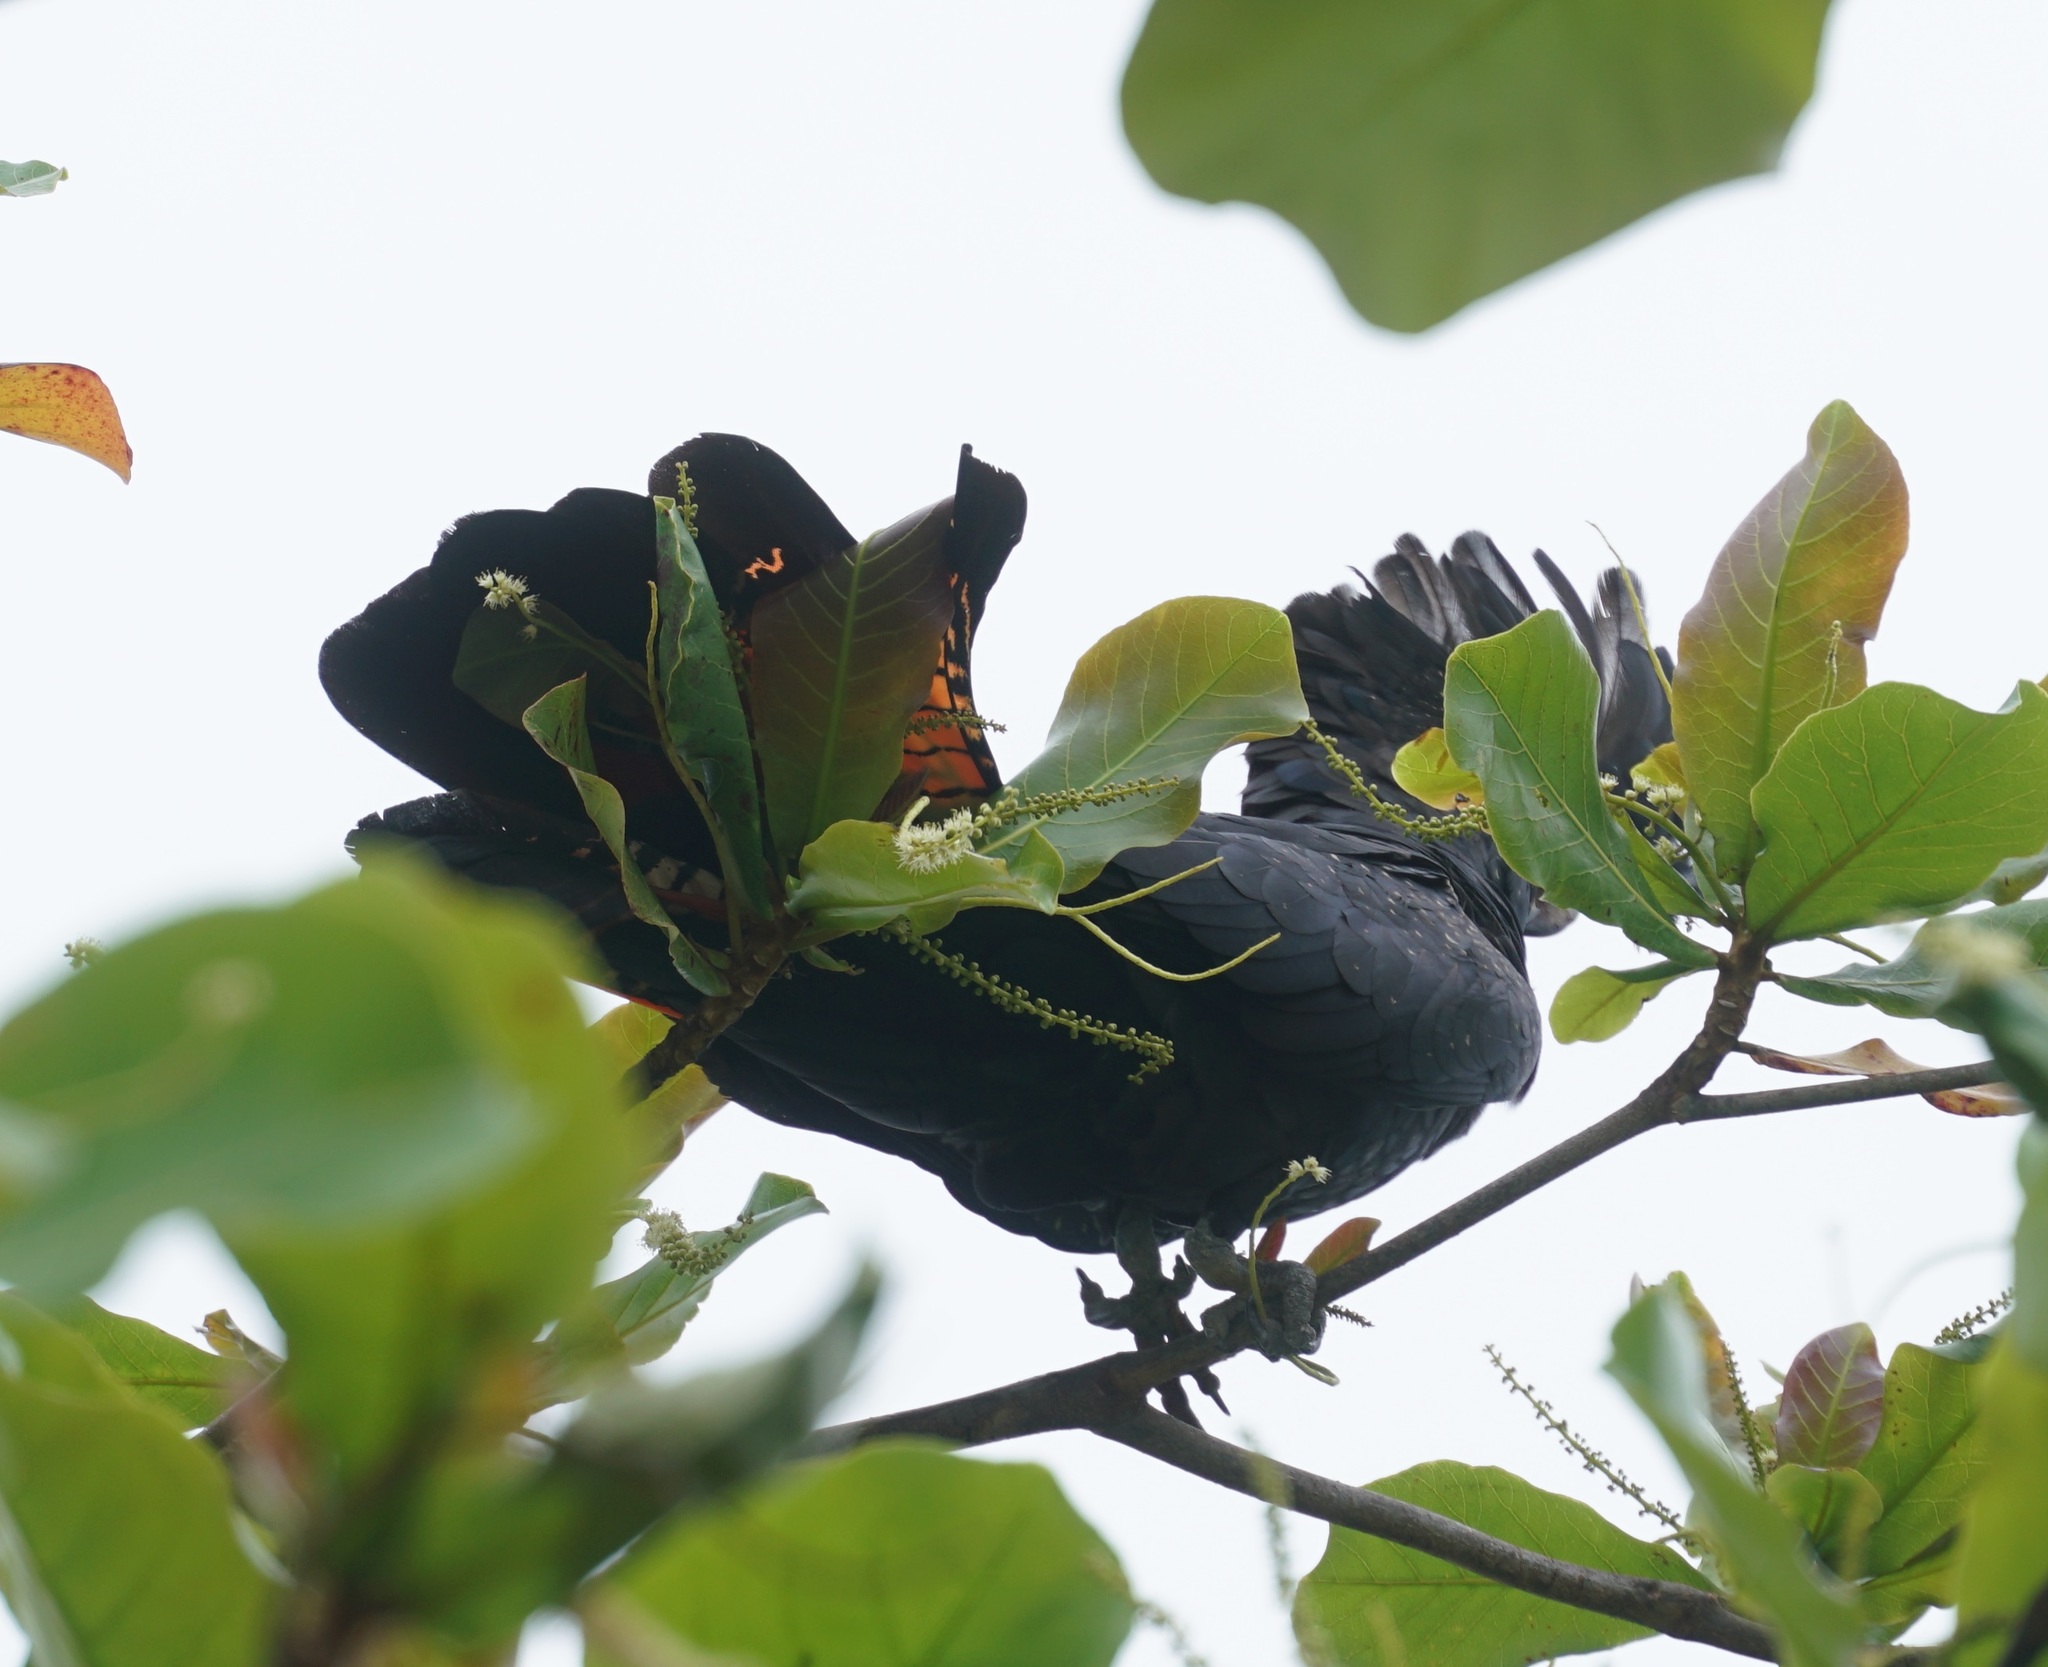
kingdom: Animalia
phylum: Chordata
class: Aves
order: Psittaciformes
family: Psittacidae
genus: Calyptorhynchus
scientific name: Calyptorhynchus banksii
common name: Red-tailed black cockatoo
